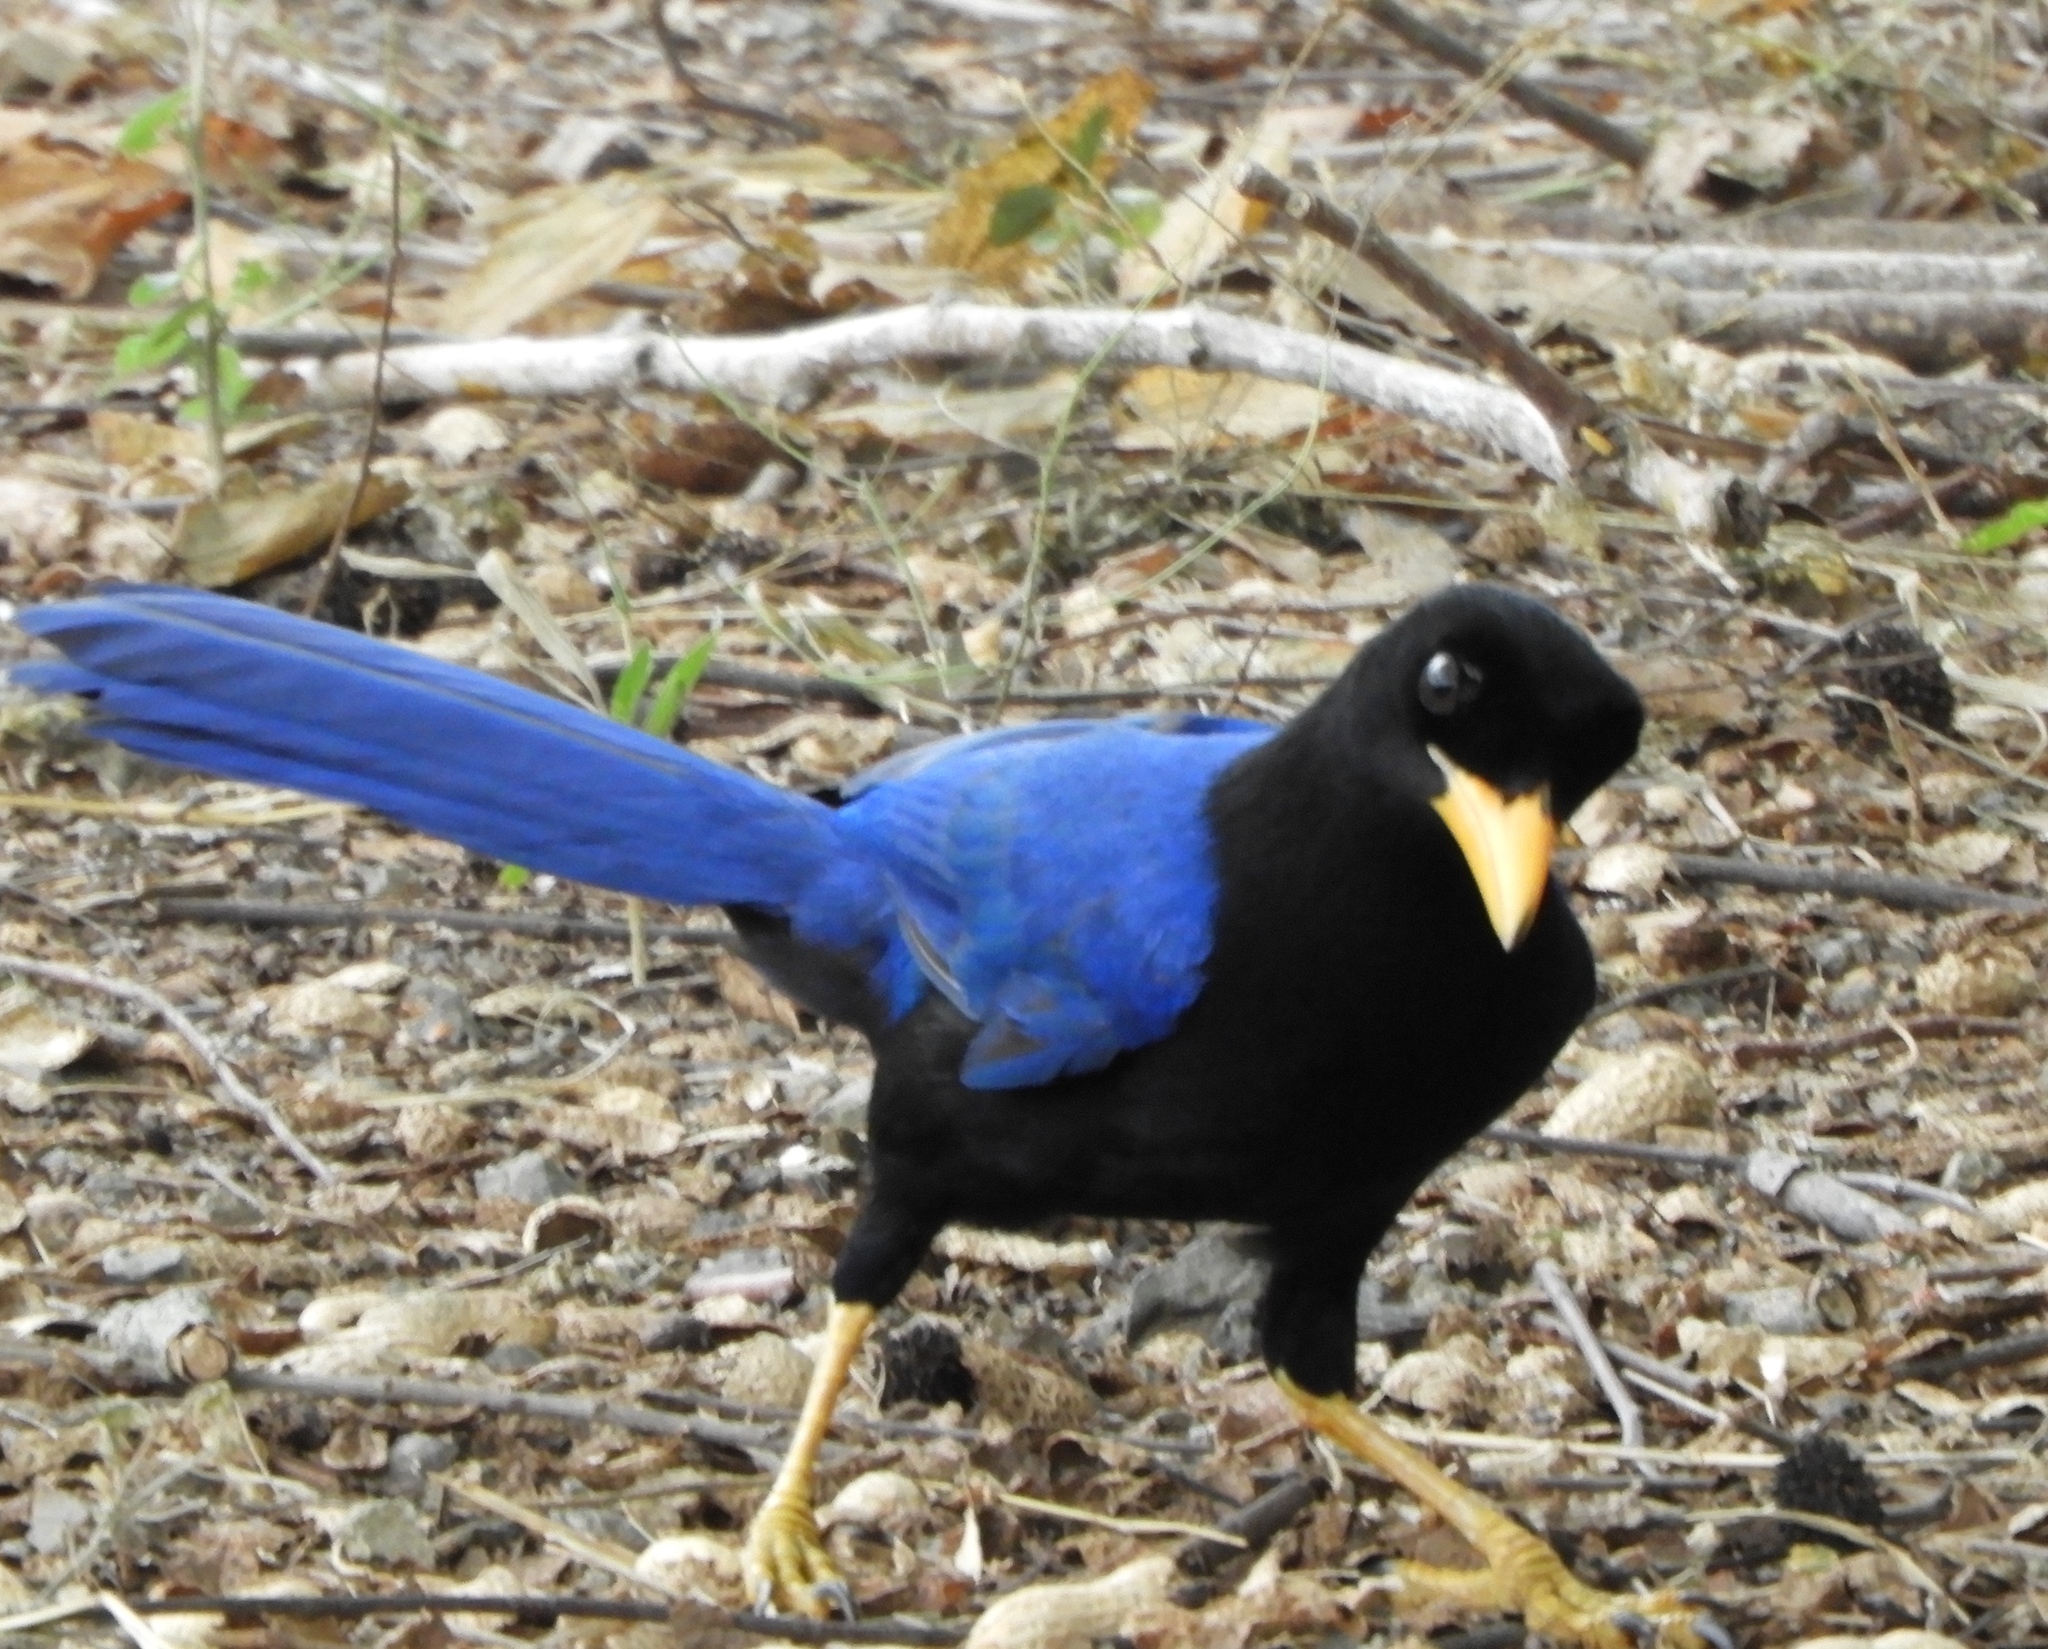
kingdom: Animalia
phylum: Chordata
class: Aves
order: Passeriformes
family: Corvidae
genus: Cyanocorax
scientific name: Cyanocorax beecheii
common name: Purplish-backed jay
